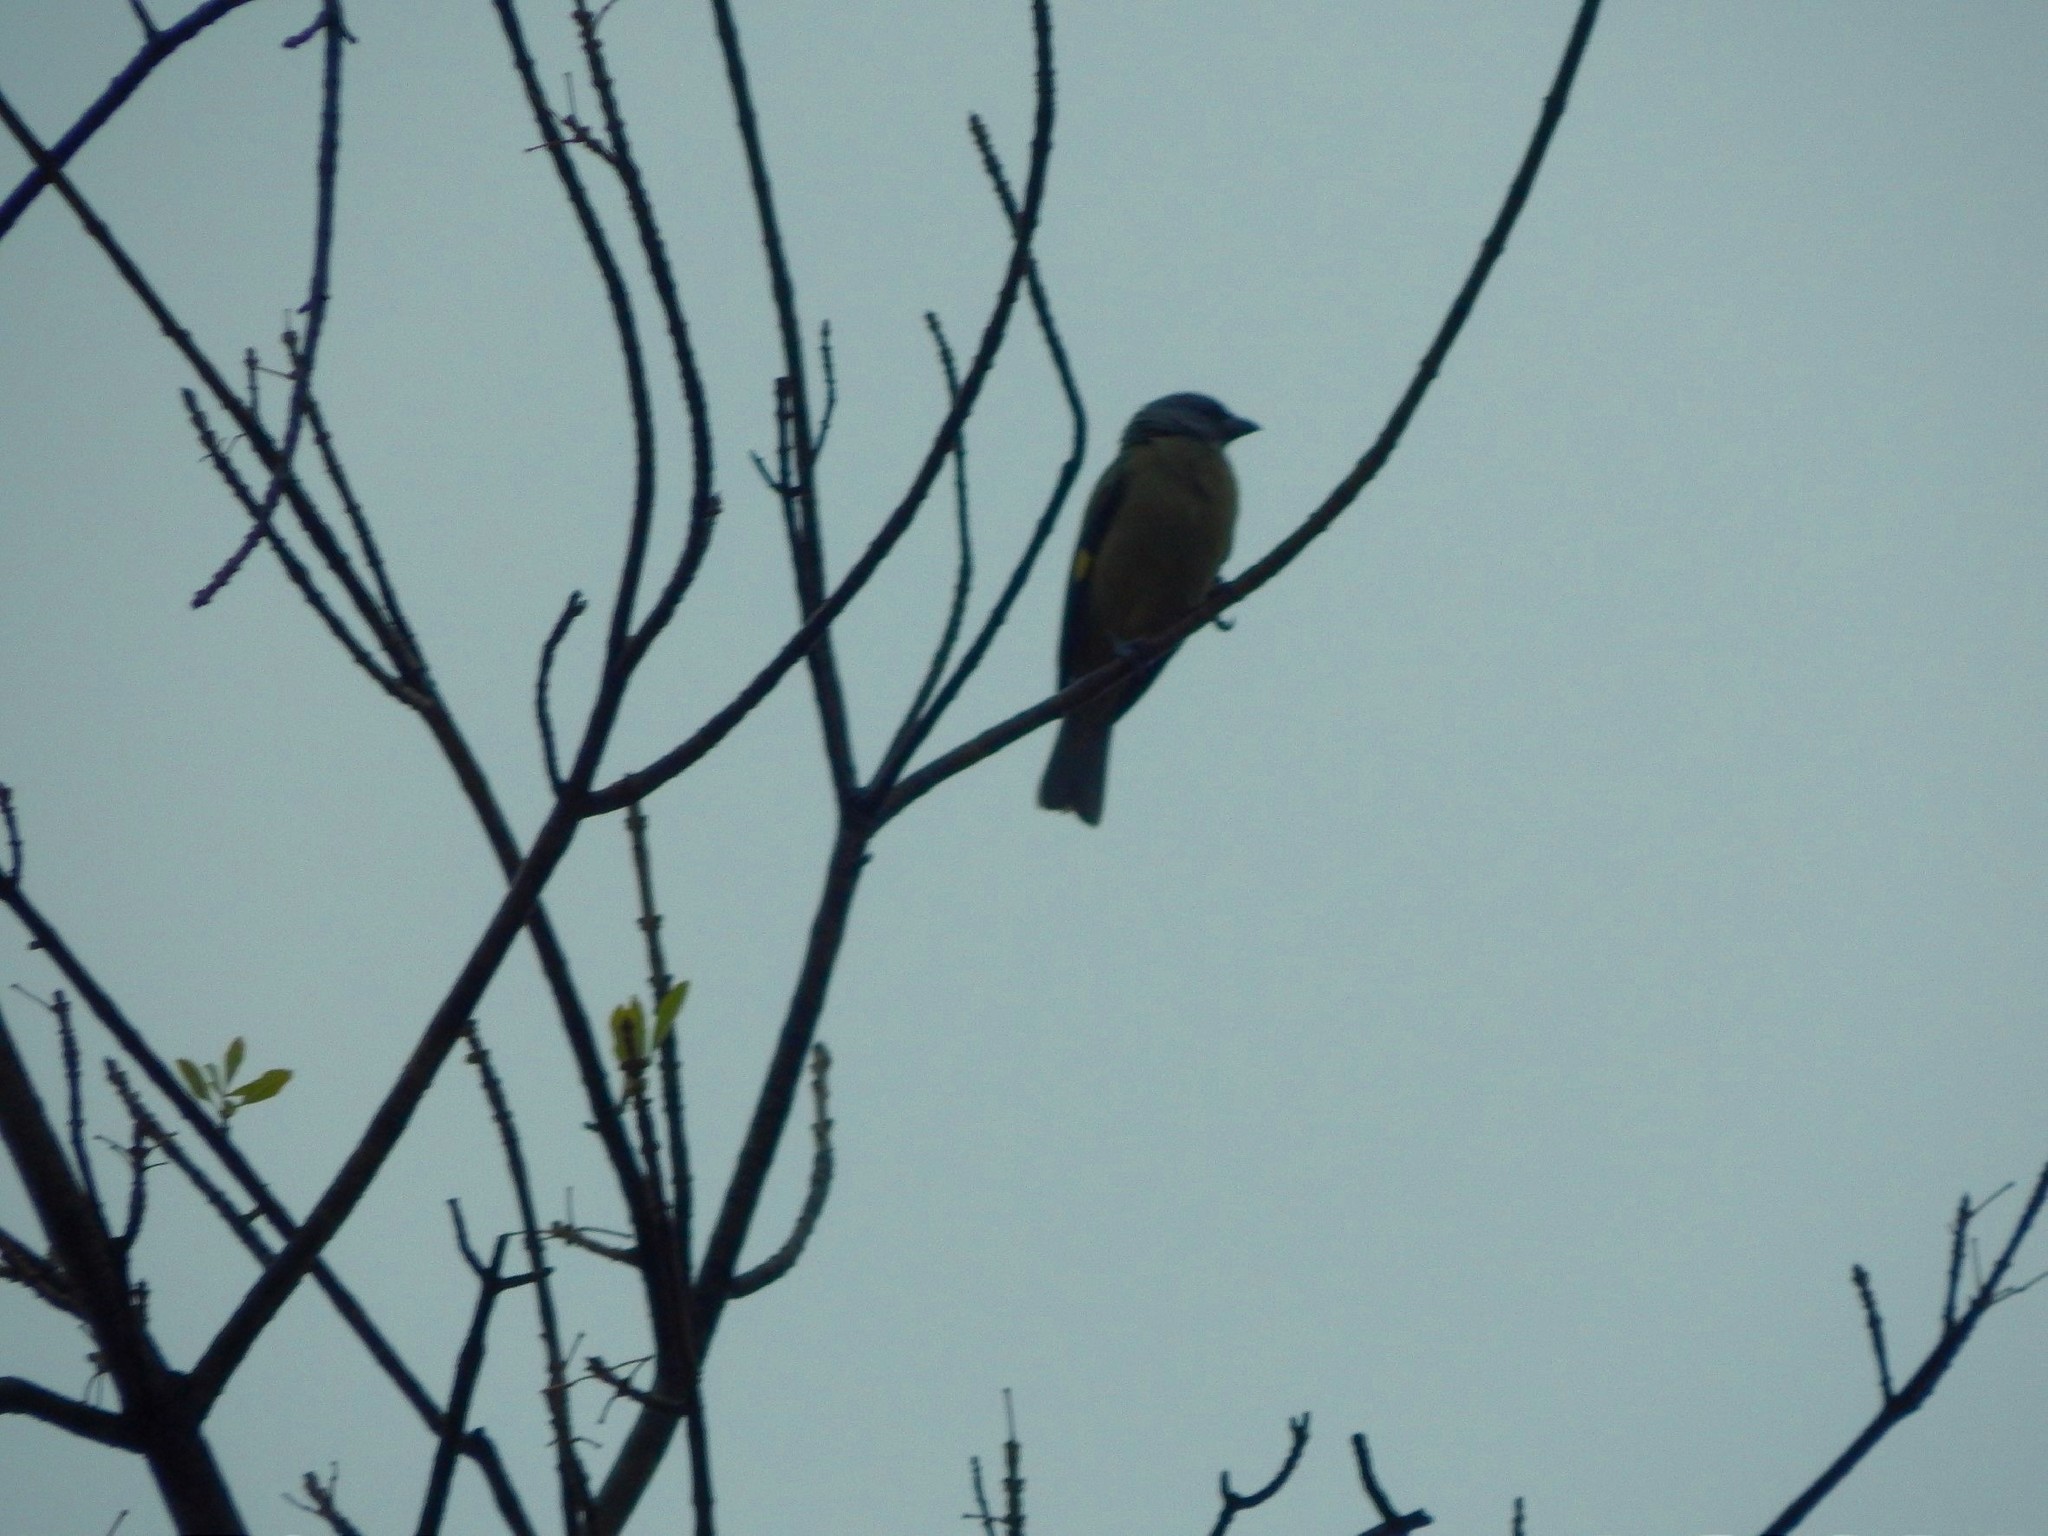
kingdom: Animalia
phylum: Chordata
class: Aves
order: Passeriformes
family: Thraupidae
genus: Thraupis
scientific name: Thraupis abbas
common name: Yellow-winged tanager
